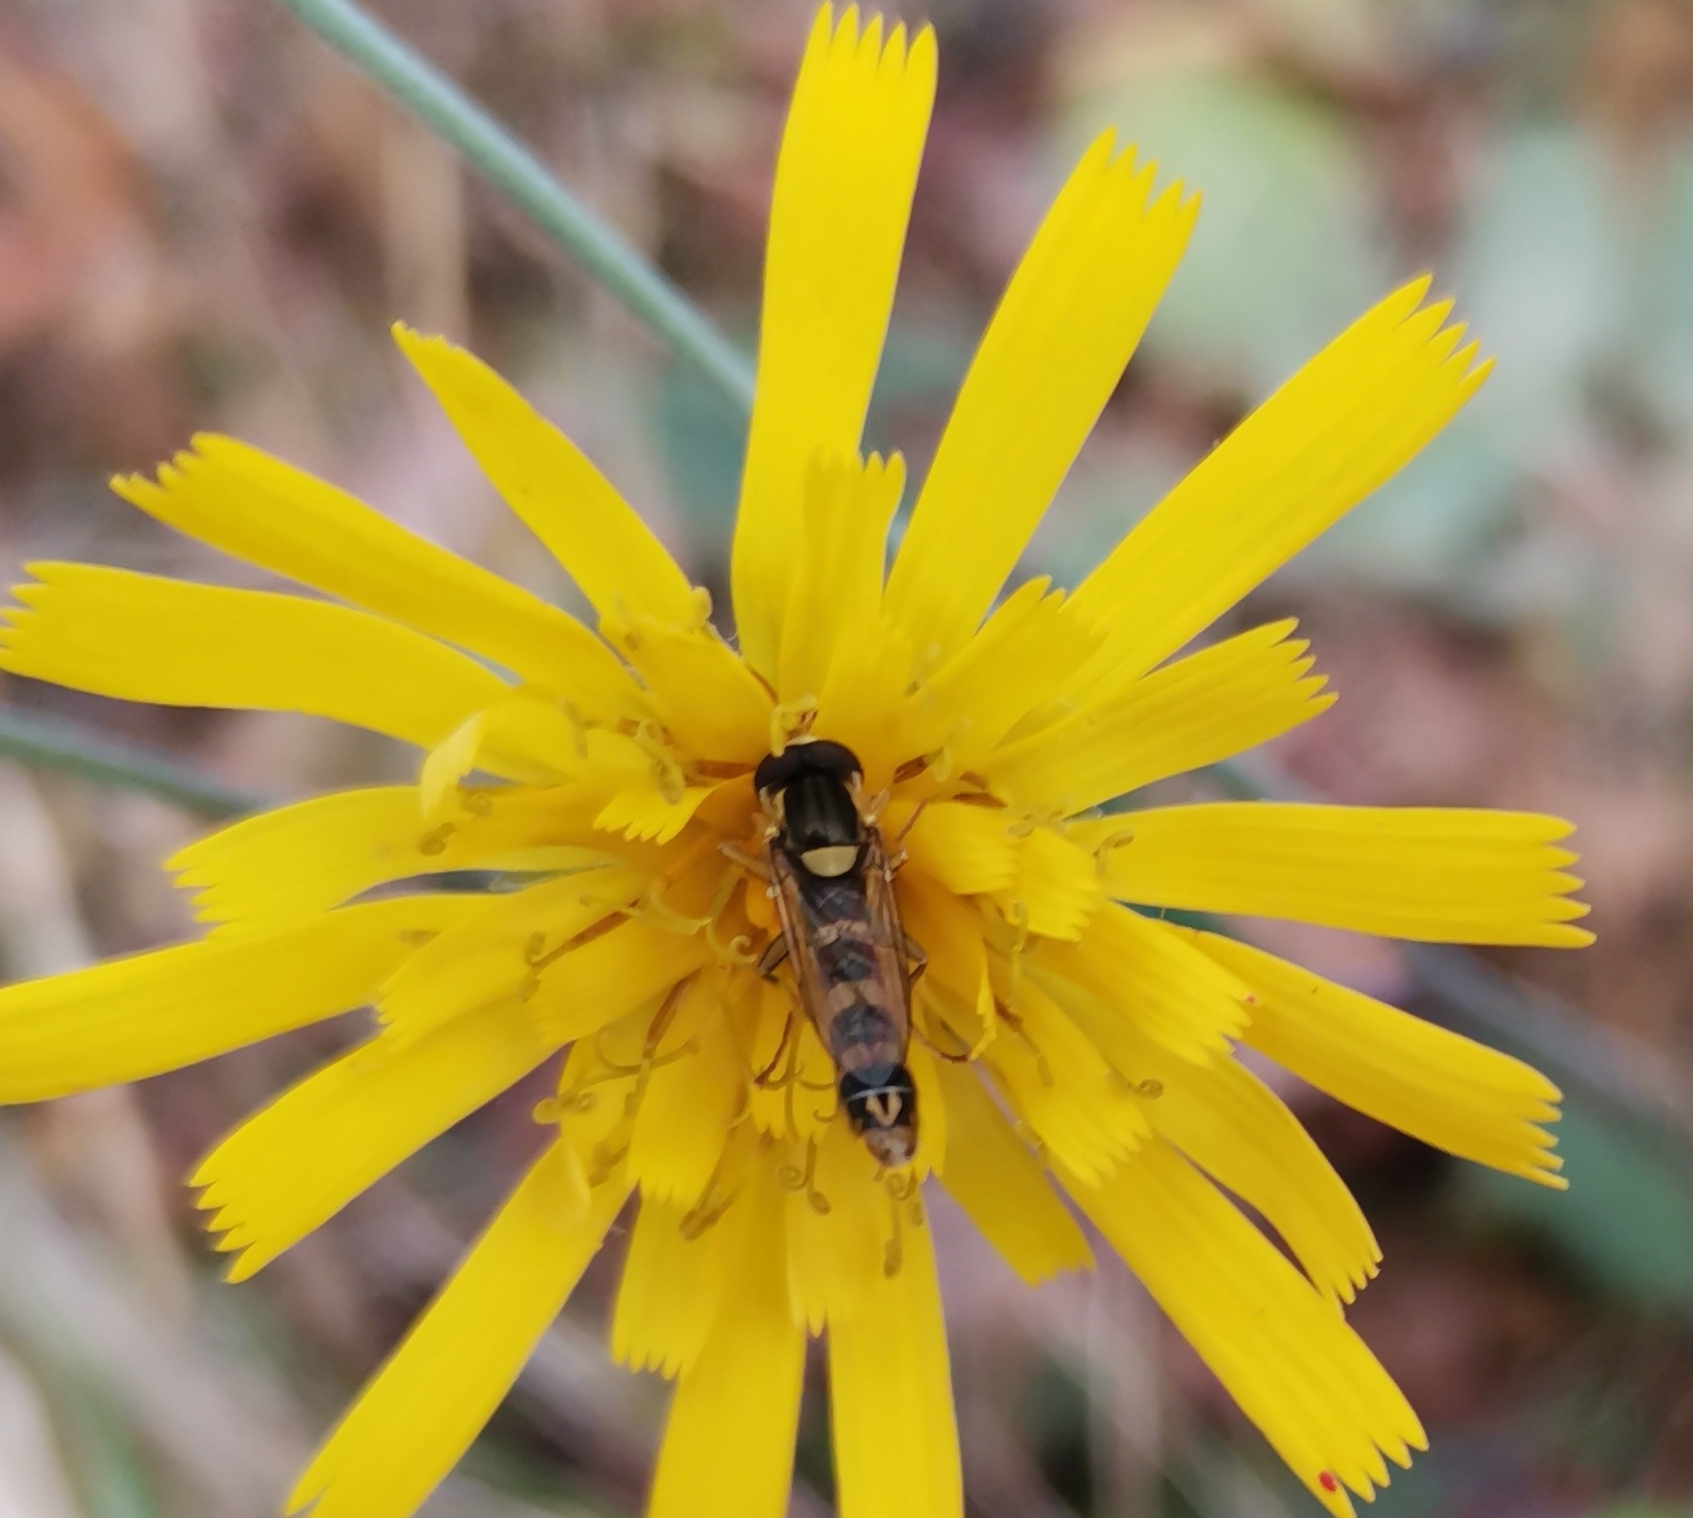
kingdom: Animalia
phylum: Arthropoda
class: Insecta
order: Diptera
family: Syrphidae
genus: Sphaerophoria
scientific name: Sphaerophoria scripta
